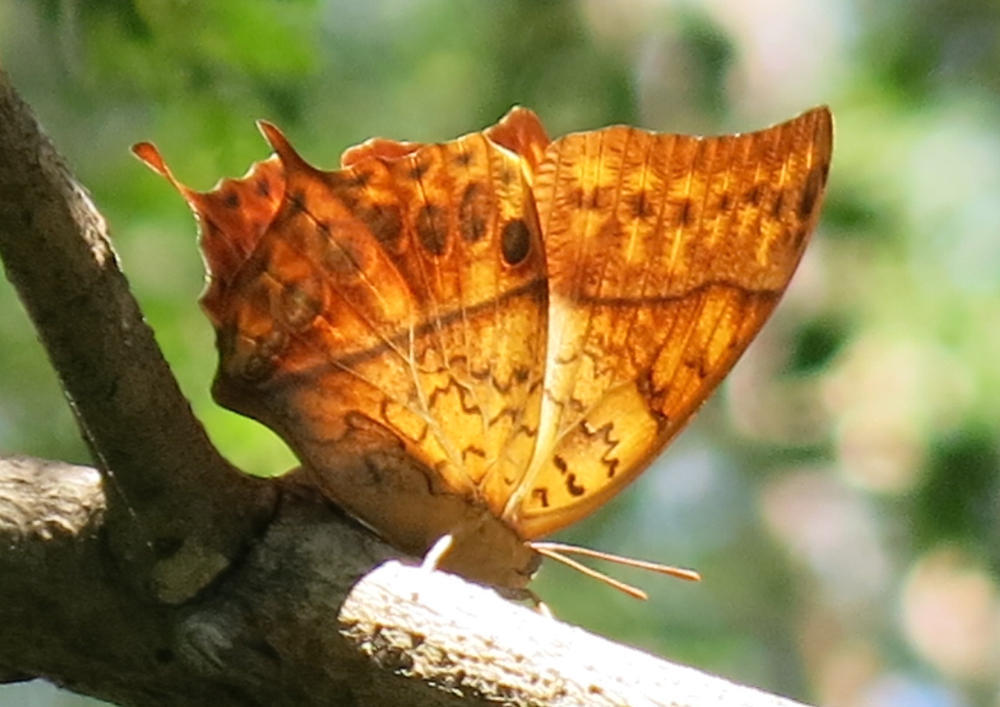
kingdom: Animalia
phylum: Arthropoda
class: Insecta
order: Lepidoptera
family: Nymphalidae
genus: Charaxes
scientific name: Charaxes varanes
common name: Common pearl charaxes
